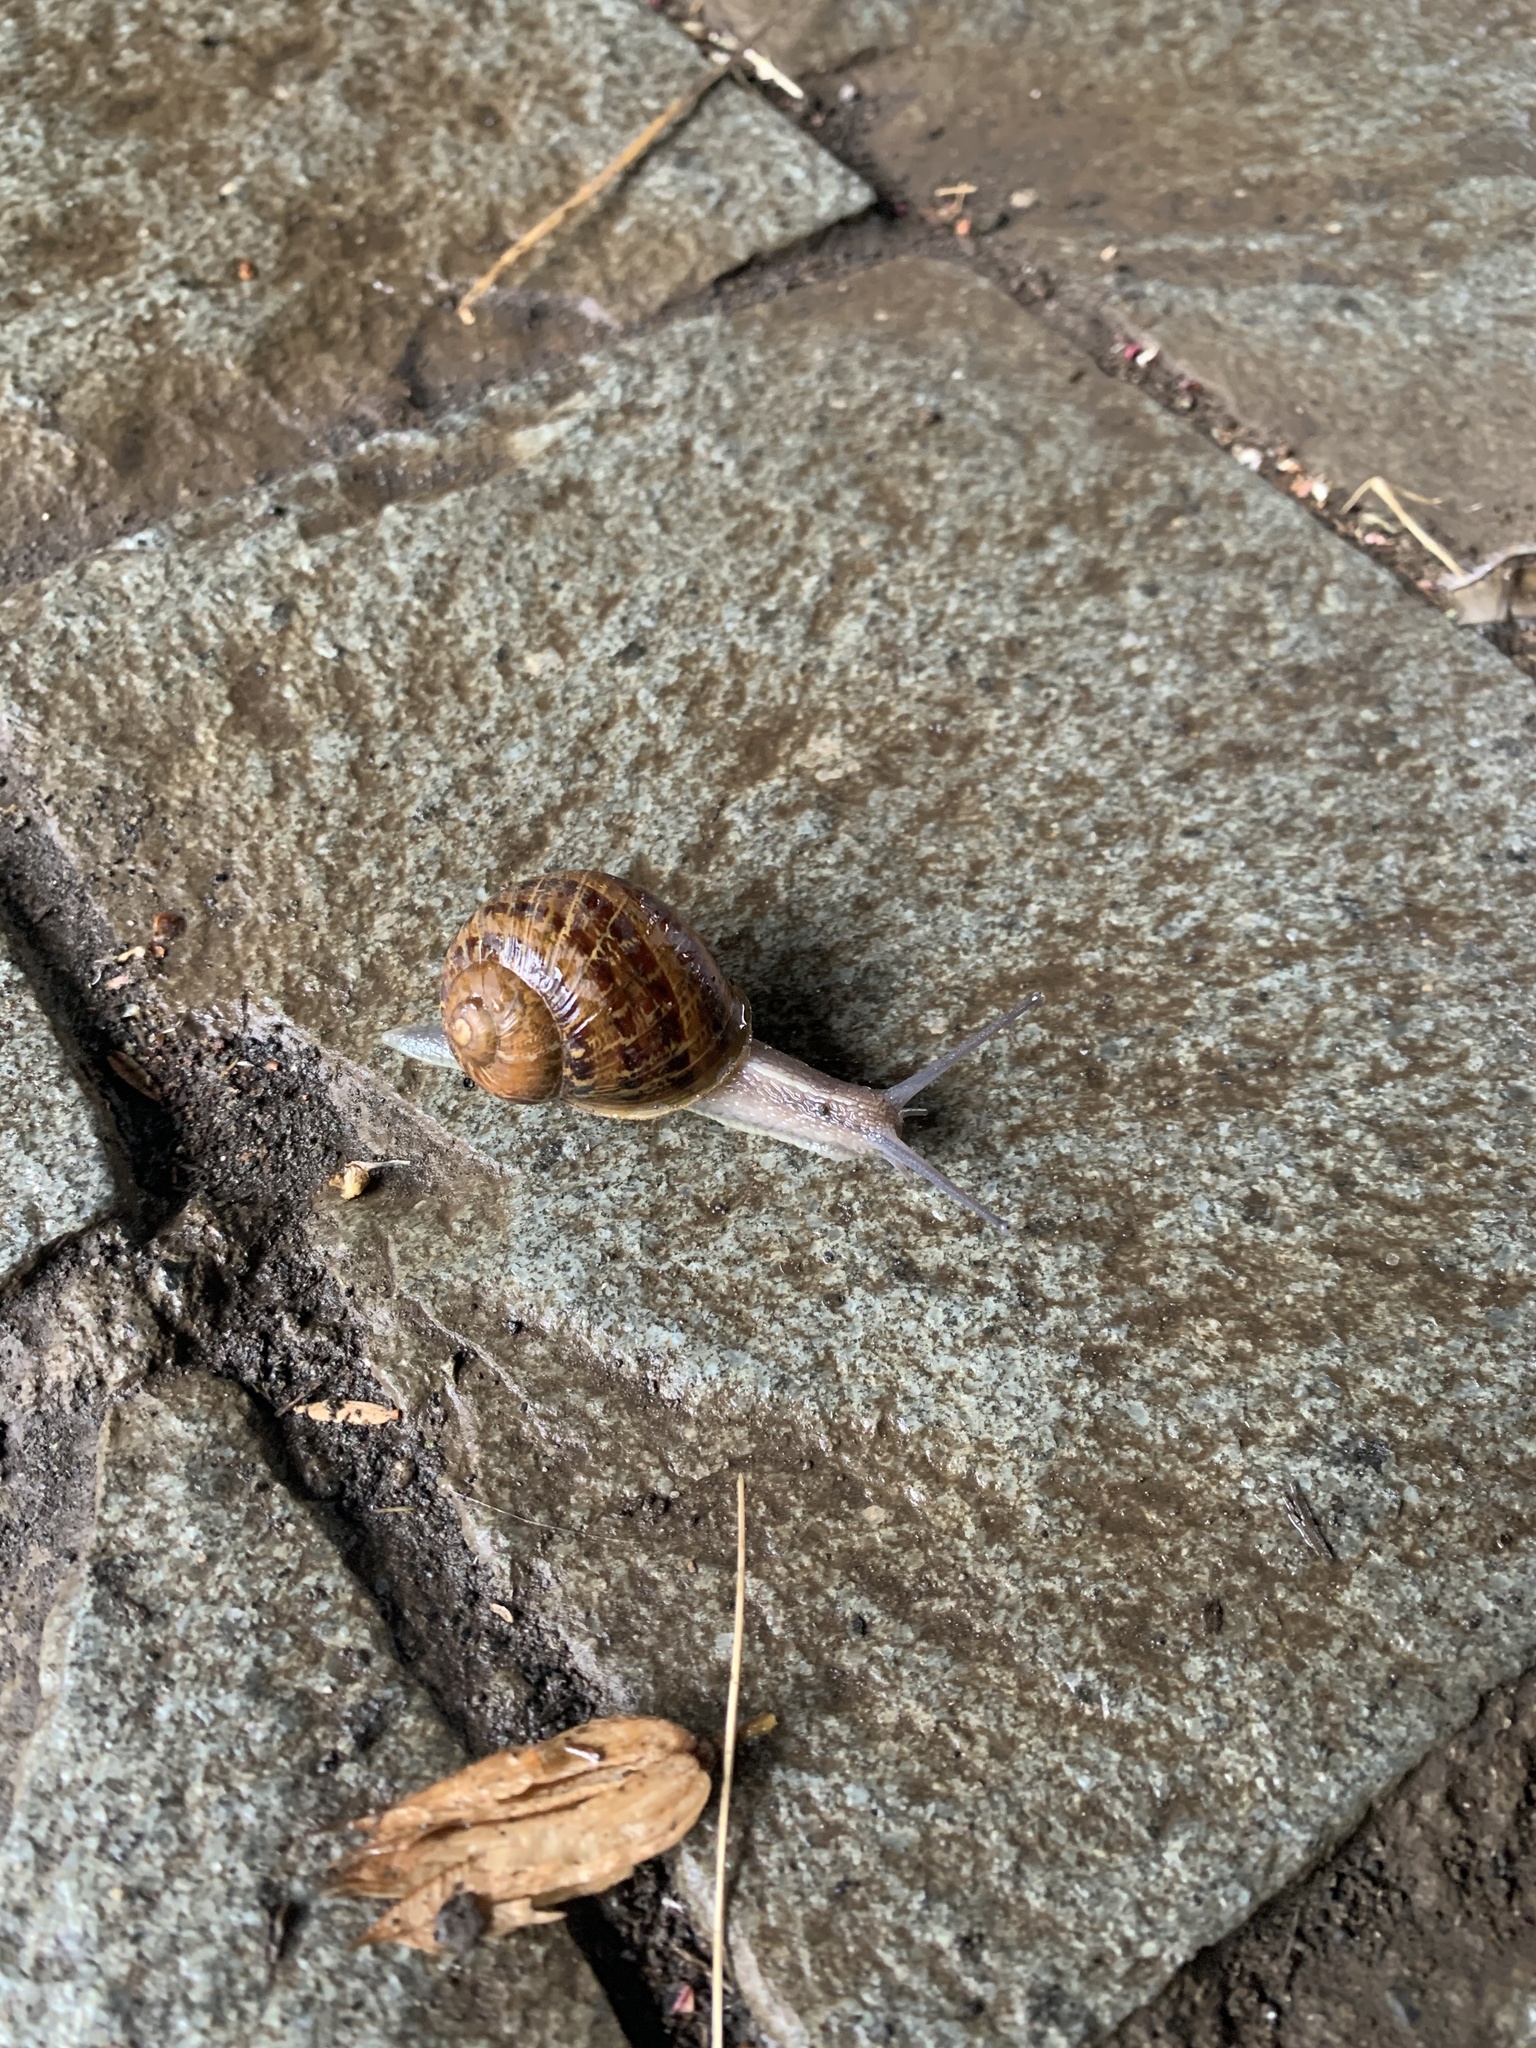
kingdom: Animalia
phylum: Mollusca
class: Gastropoda
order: Stylommatophora
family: Helicidae
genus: Cornu
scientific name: Cornu aspersum
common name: Brown garden snail
